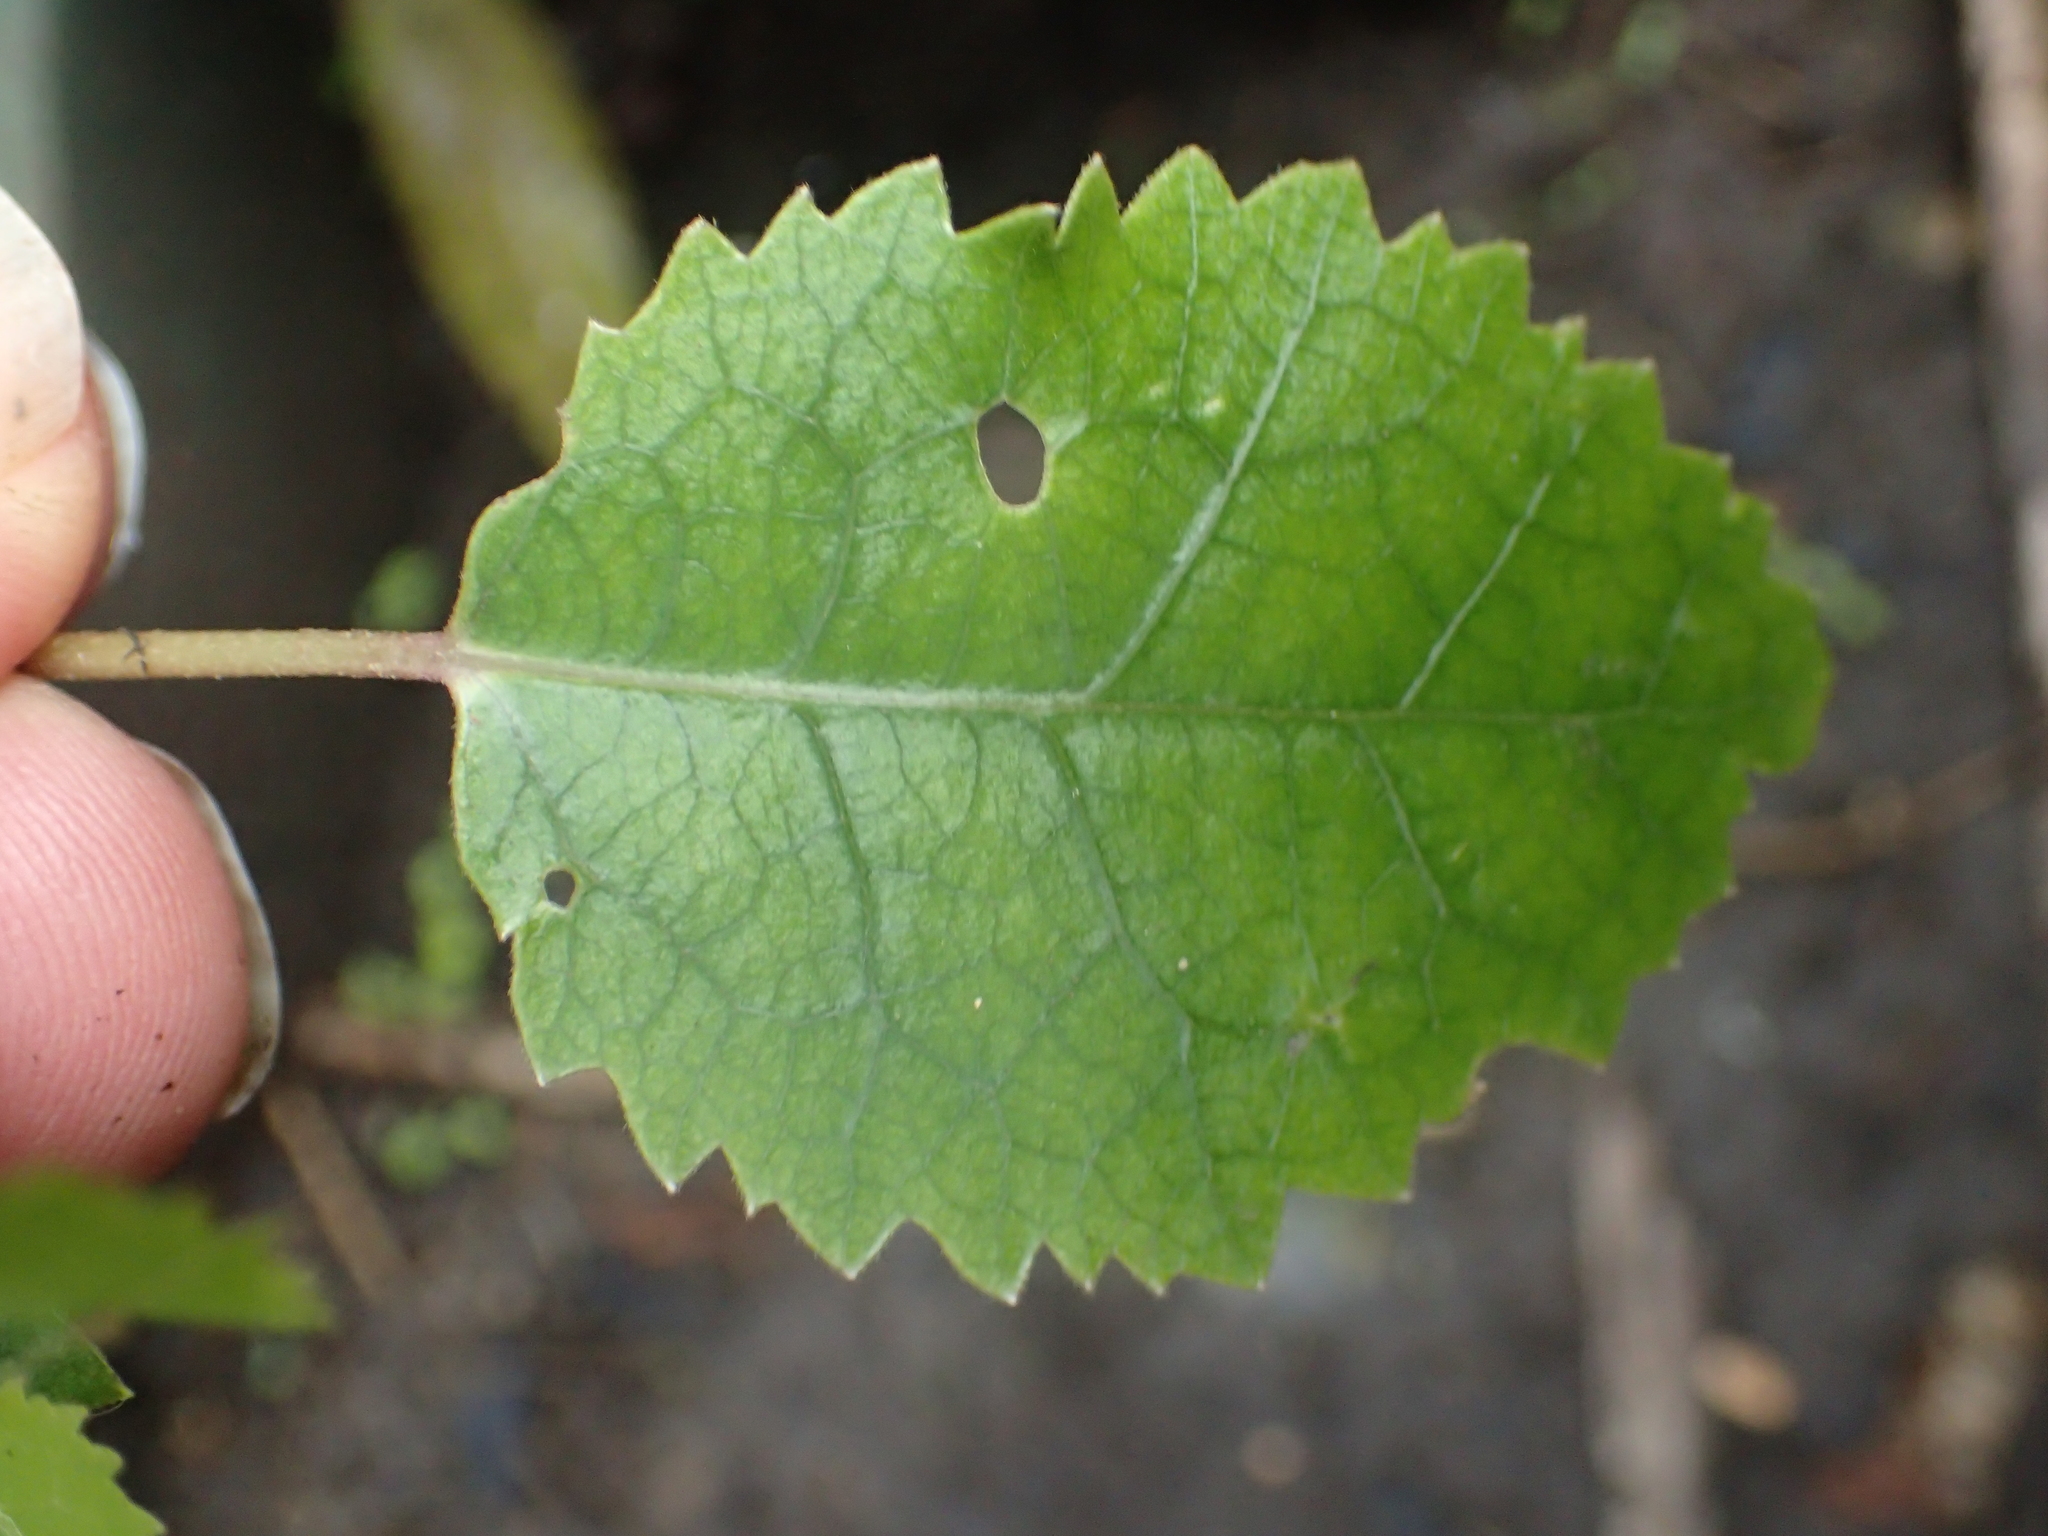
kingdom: Plantae
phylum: Tracheophyta
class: Magnoliopsida
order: Malvales
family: Malvaceae
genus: Hoheria
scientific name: Hoheria populnea
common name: Lacebark
